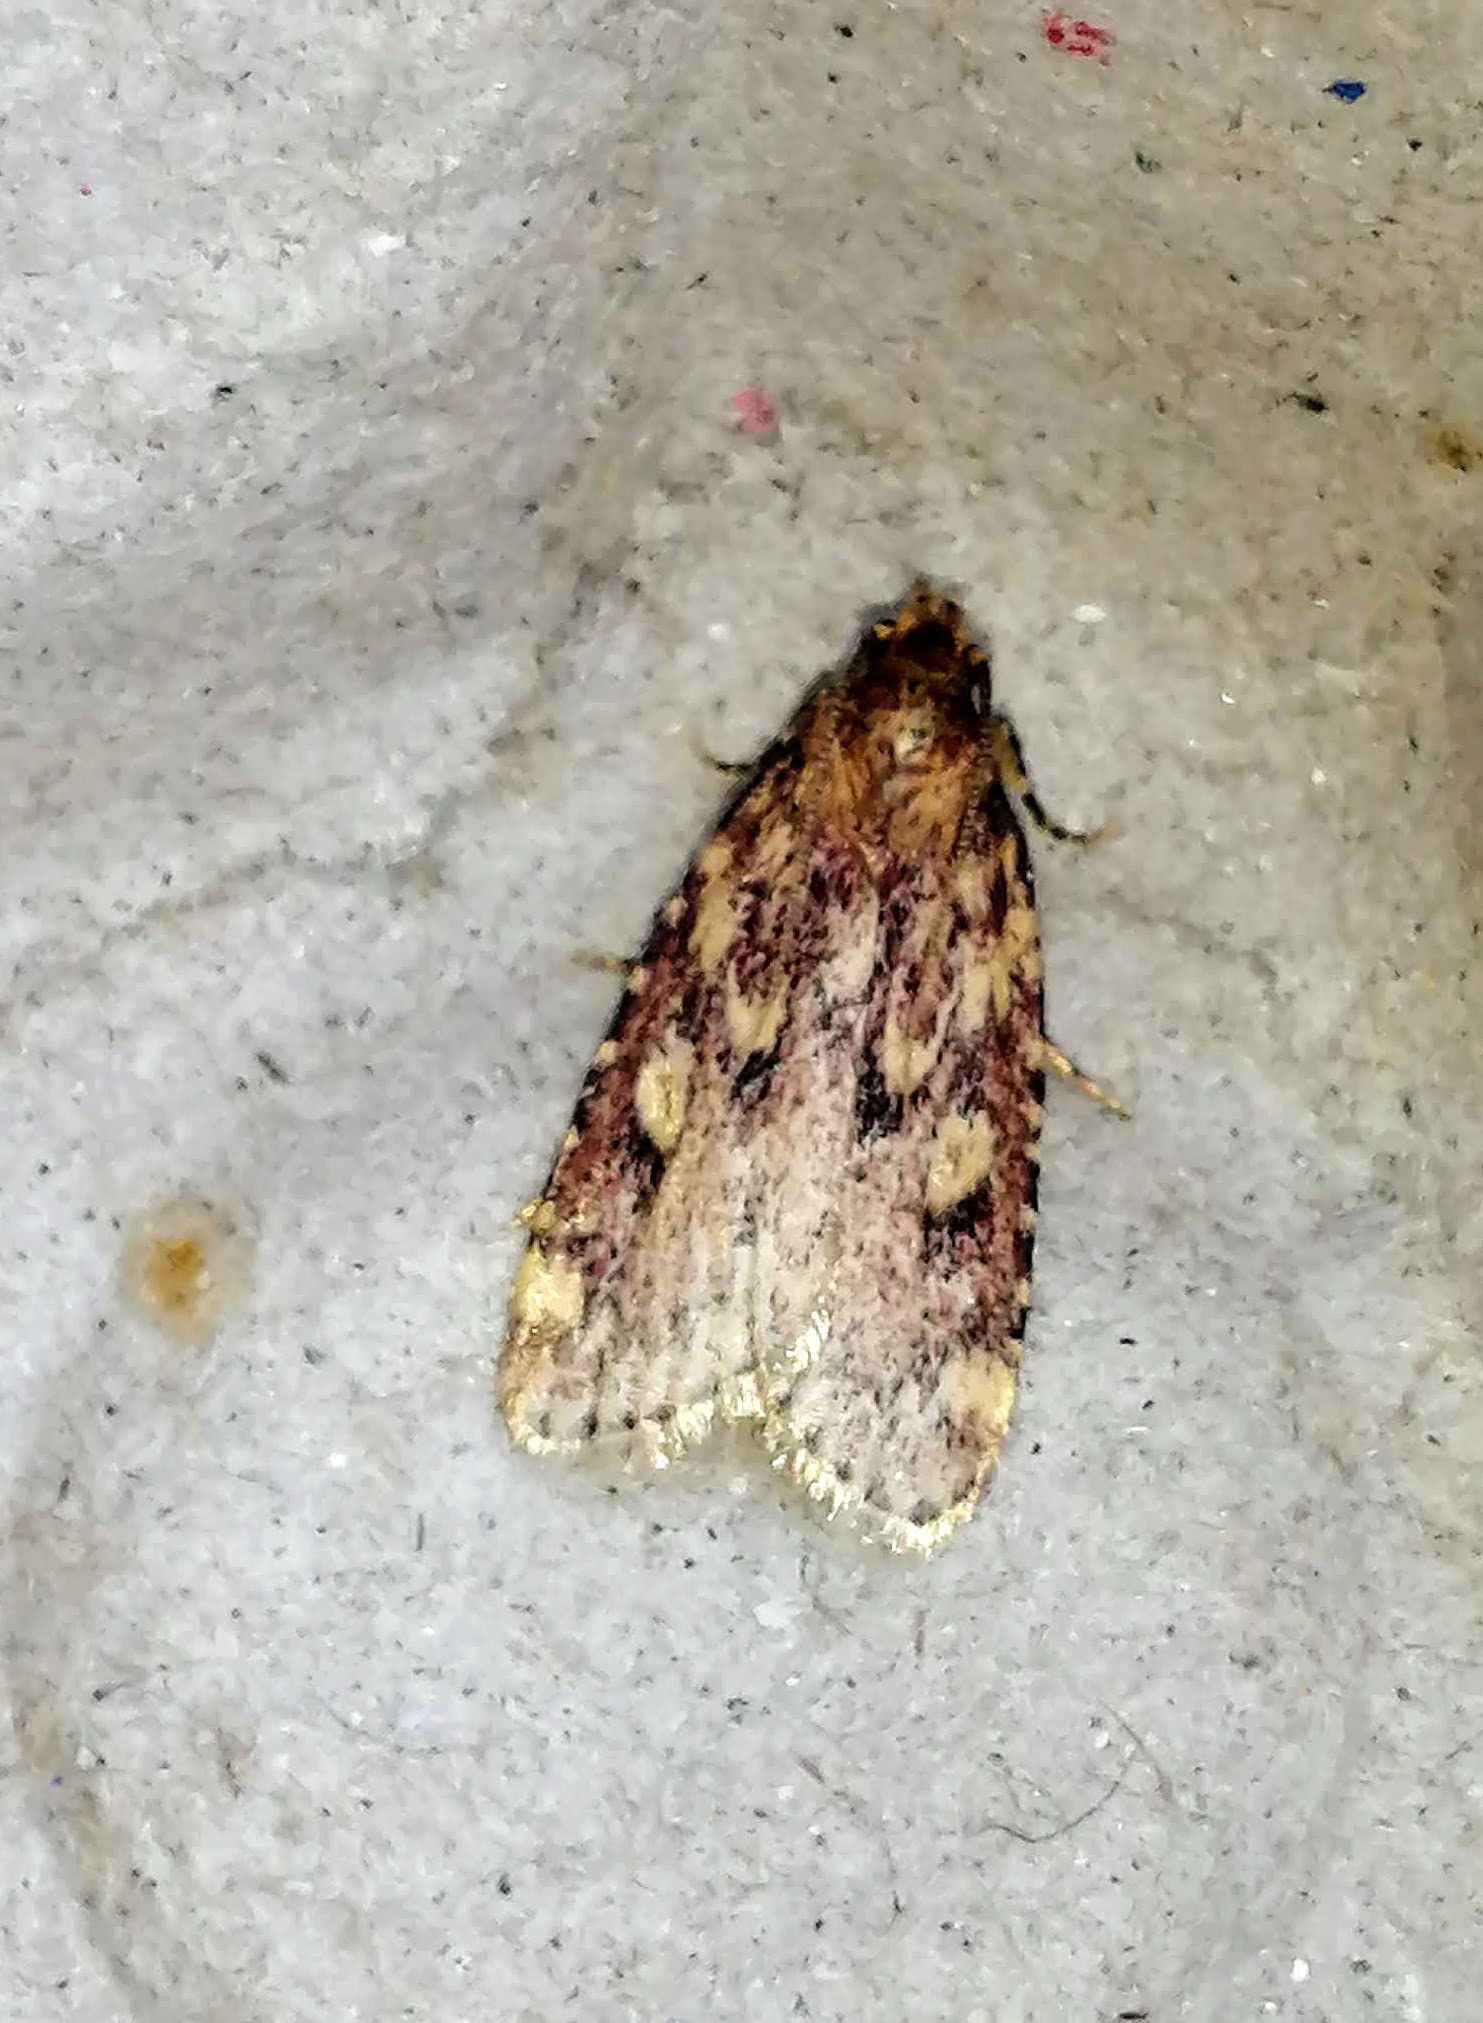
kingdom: Animalia
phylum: Arthropoda
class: Insecta
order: Lepidoptera
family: Pyralidae
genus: Aglossa
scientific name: Aglossa cuprina
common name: Grease moth
